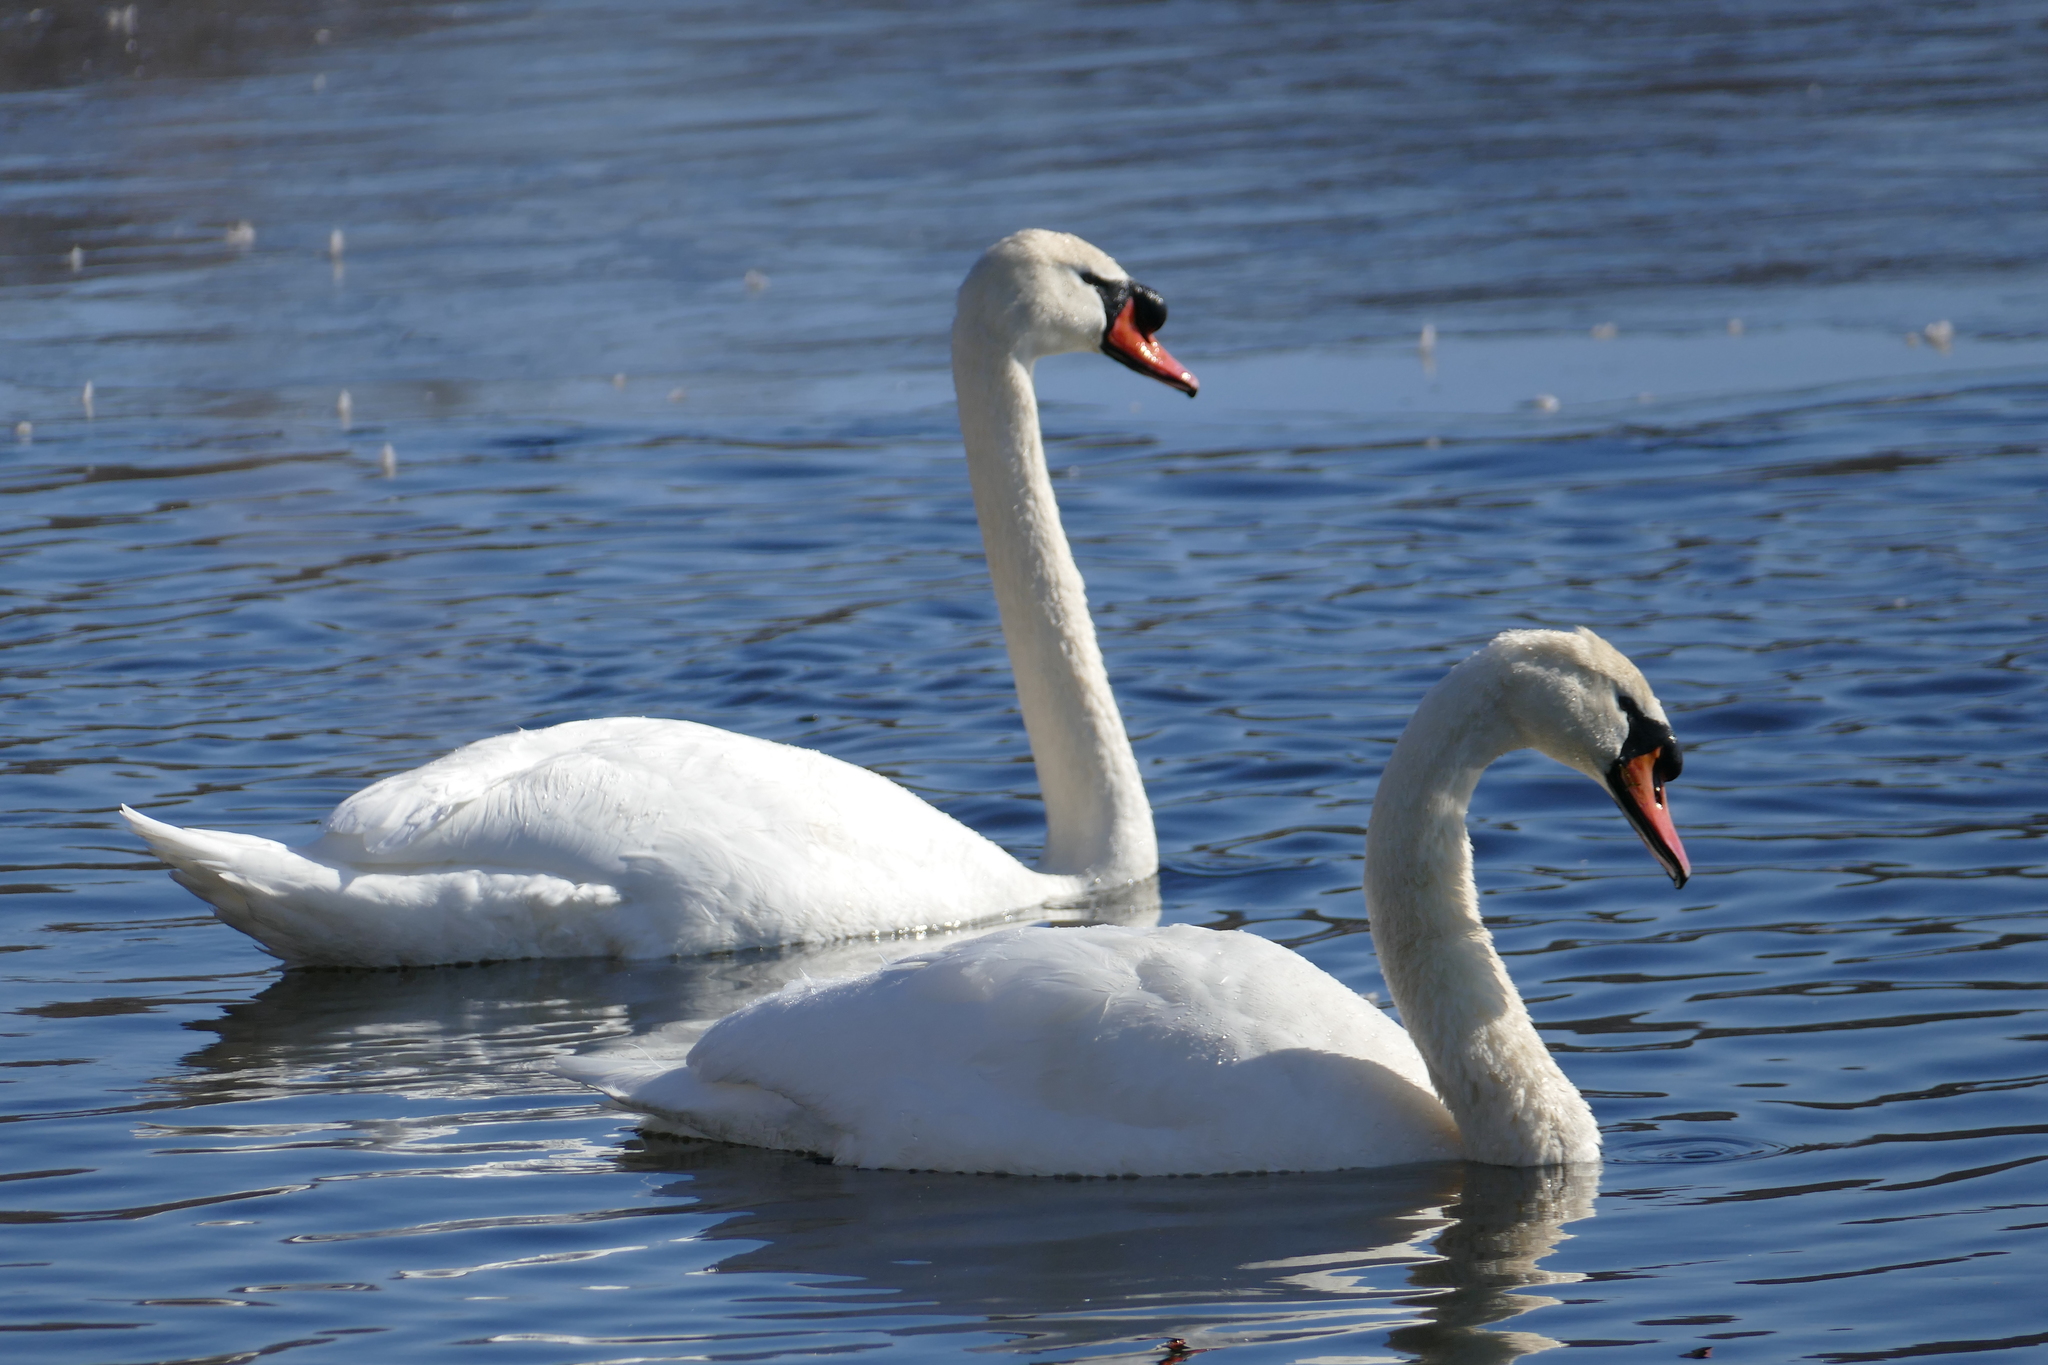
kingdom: Animalia
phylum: Chordata
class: Aves
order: Anseriformes
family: Anatidae
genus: Cygnus
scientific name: Cygnus olor
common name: Mute swan
